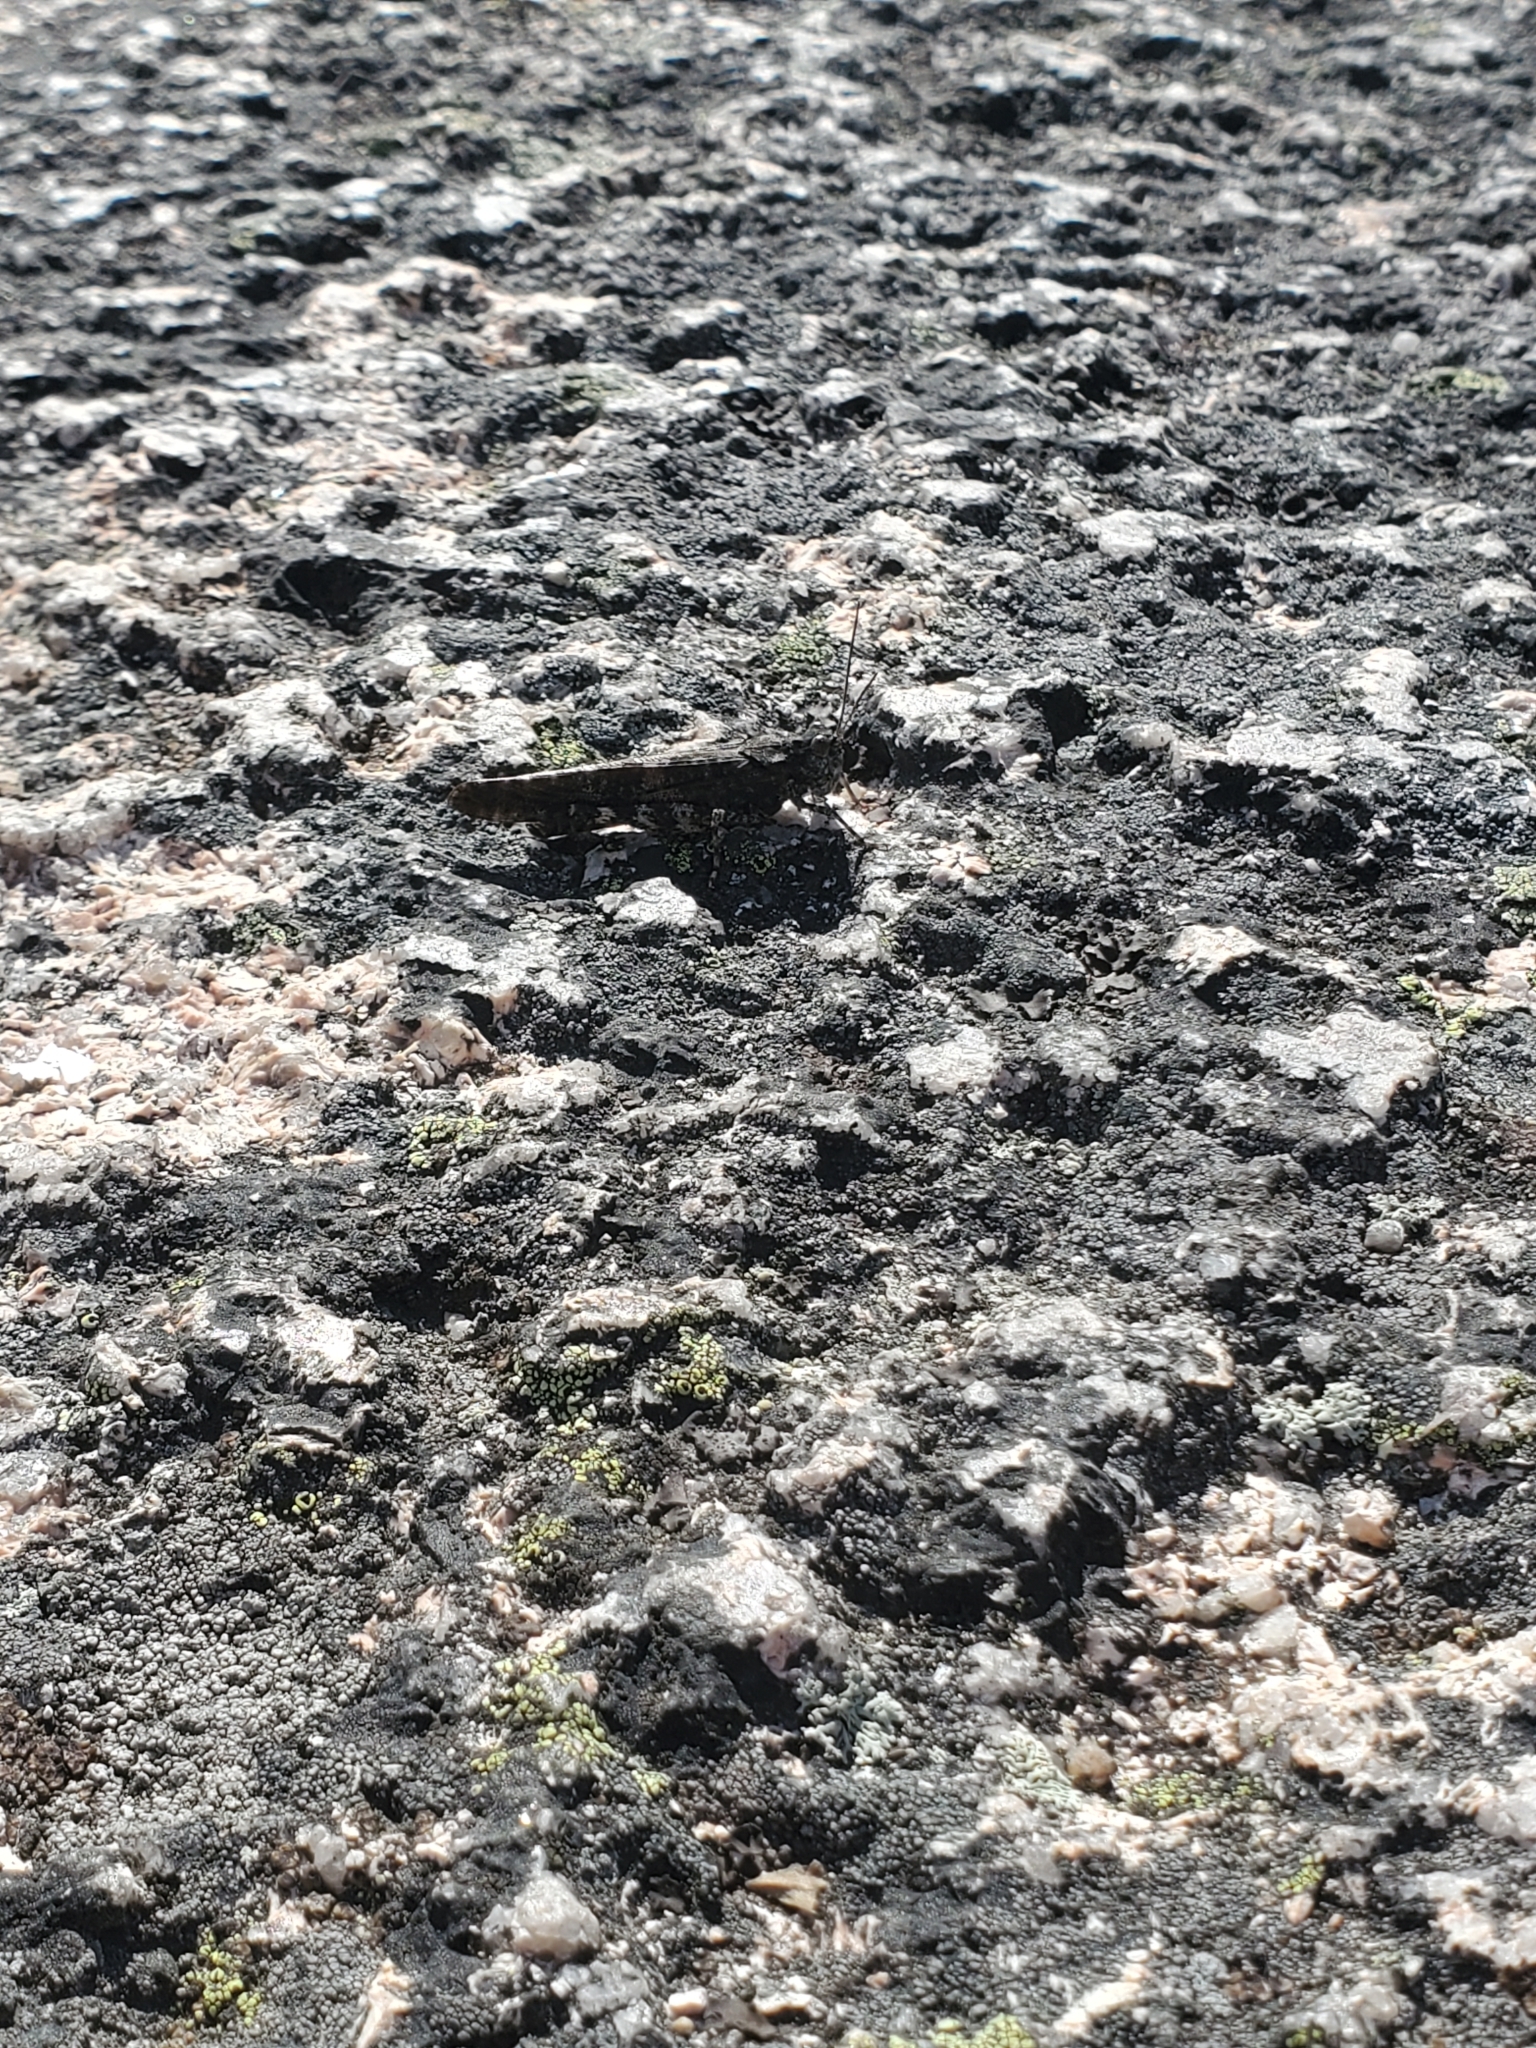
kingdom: Animalia
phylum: Arthropoda
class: Insecta
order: Orthoptera
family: Acrididae
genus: Trimerotropis
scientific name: Trimerotropis verruculata
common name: Crackling forest grasshopper
